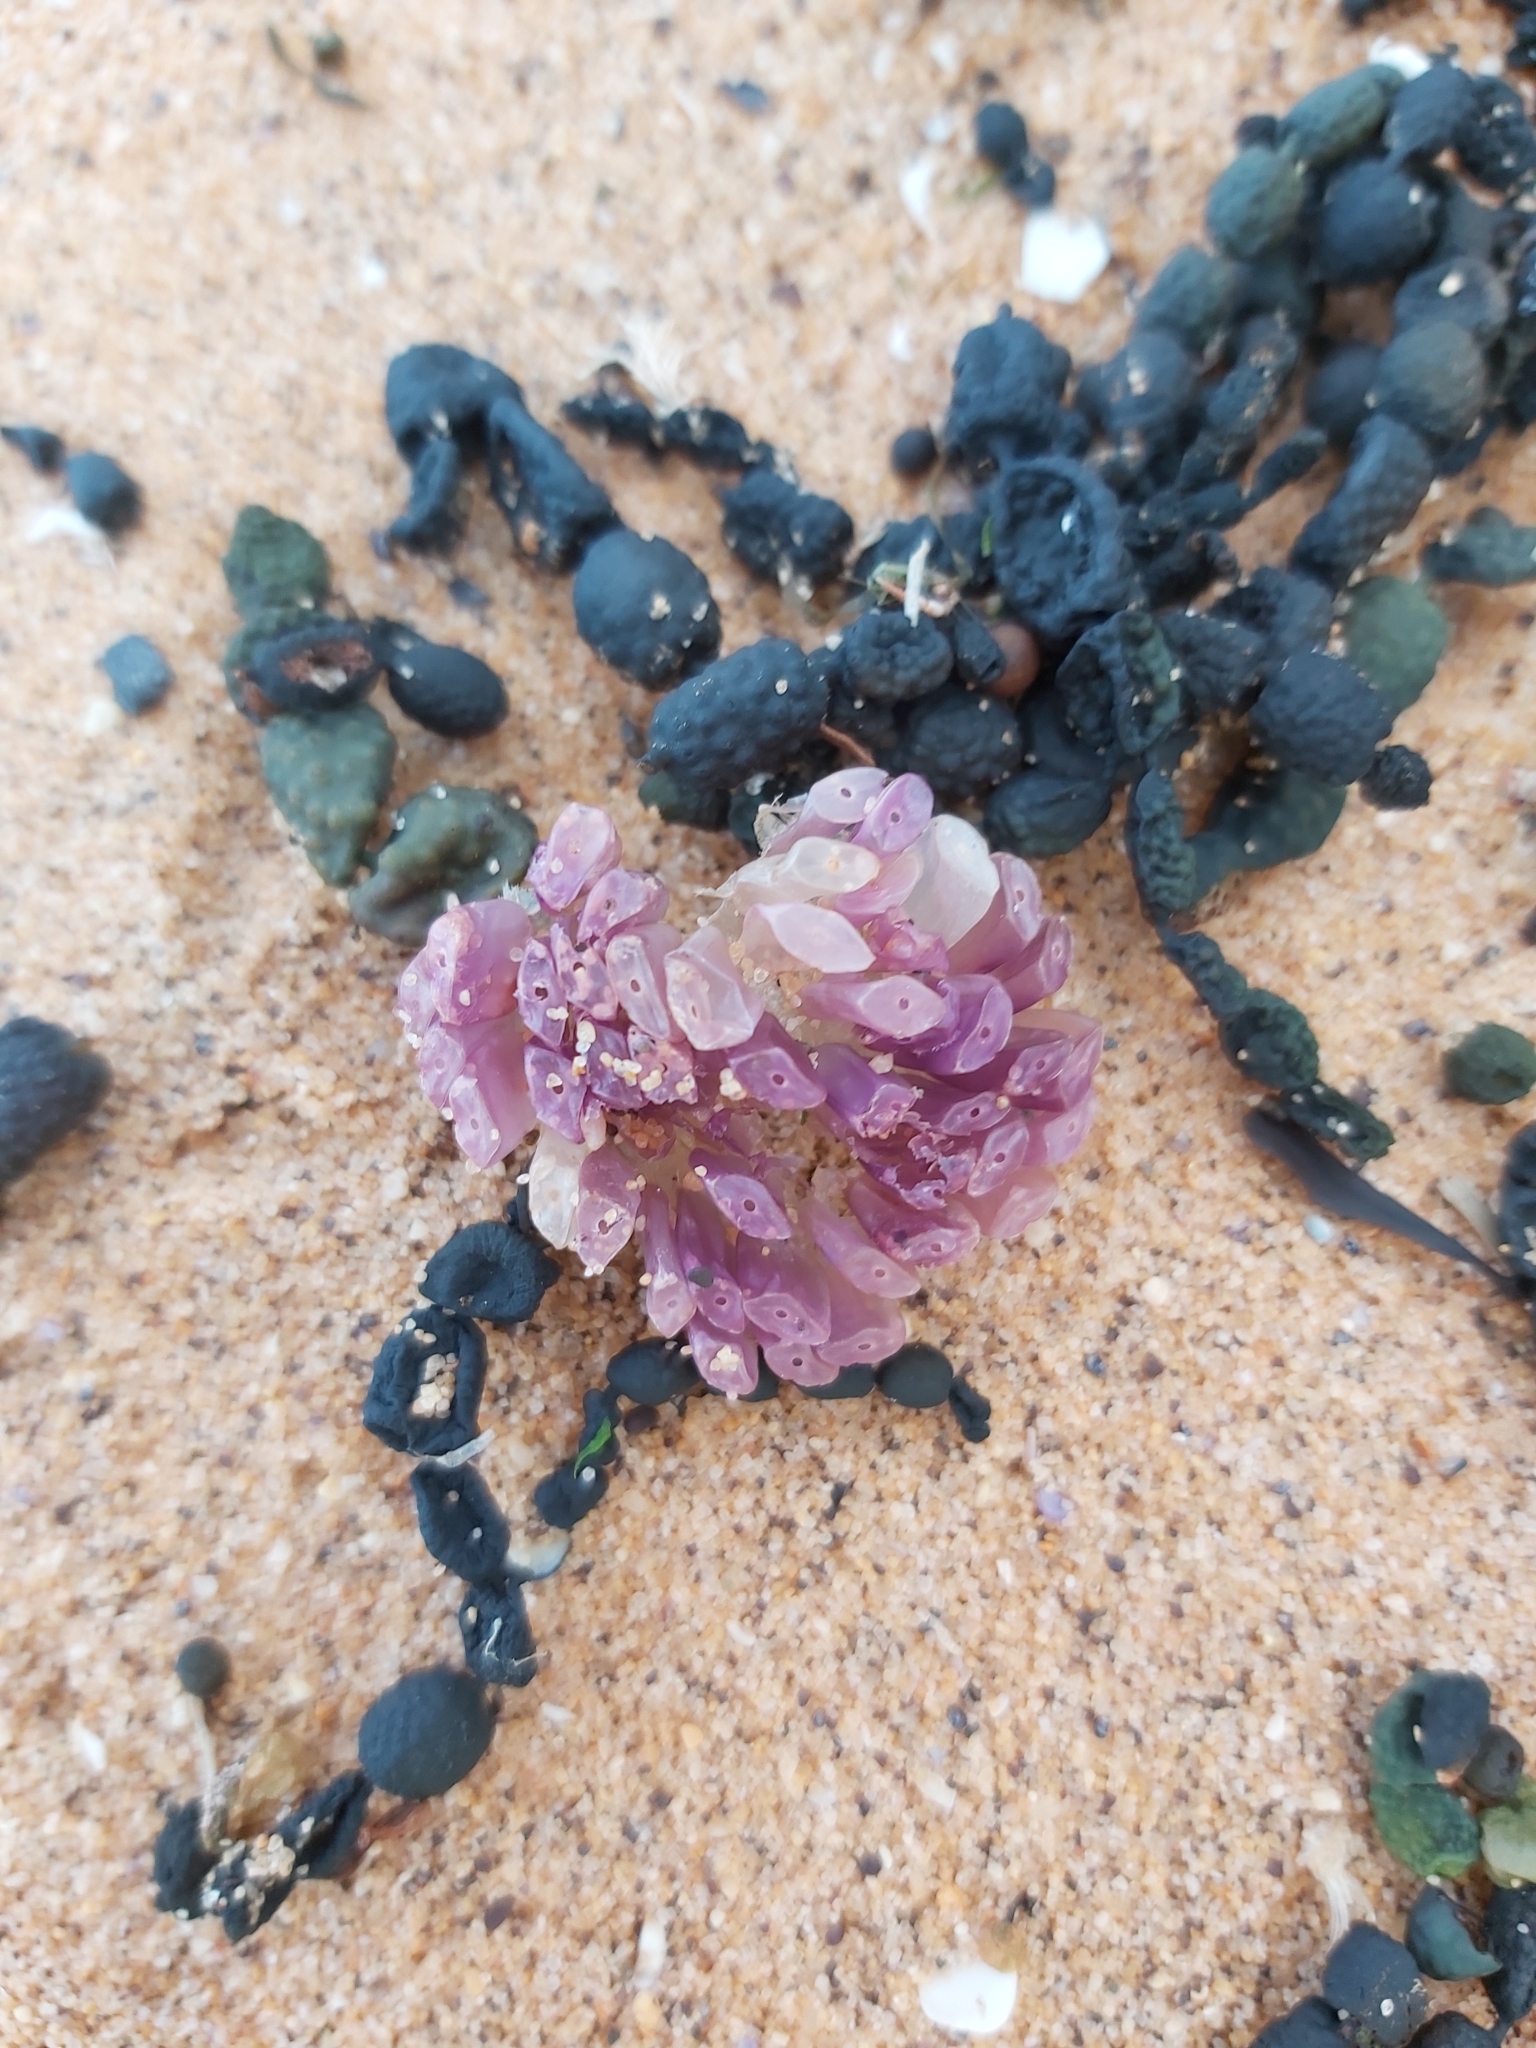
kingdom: Animalia
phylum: Mollusca
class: Gastropoda
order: Neogastropoda
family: Muricidae
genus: Dicathais
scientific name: Dicathais orbita
